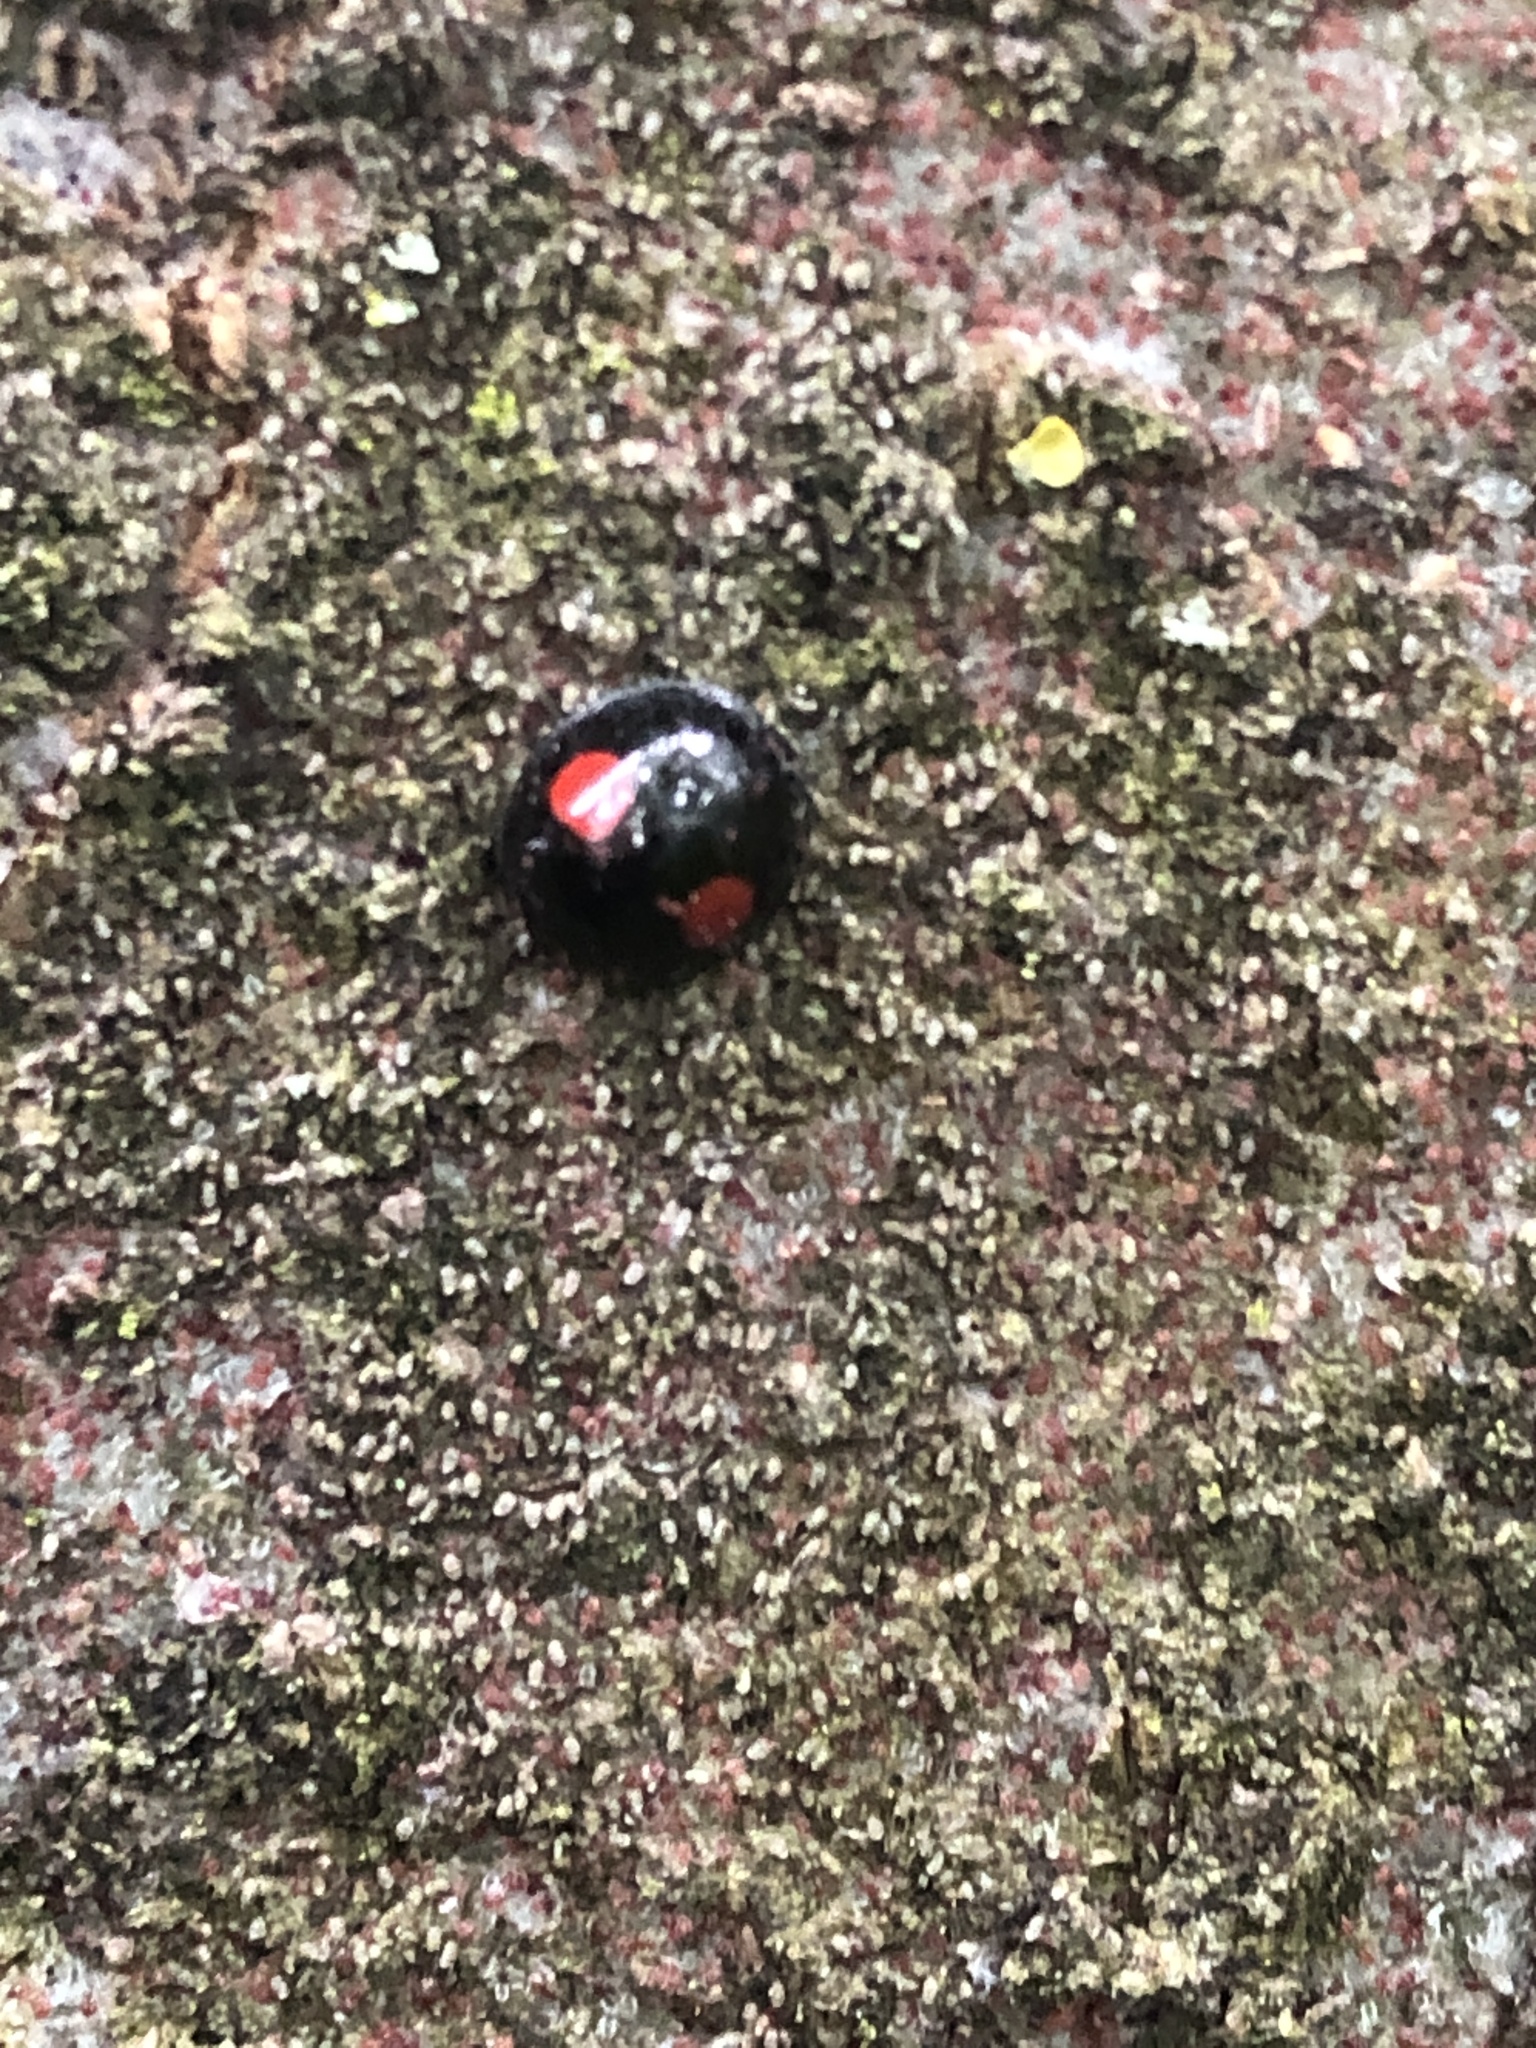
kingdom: Animalia
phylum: Arthropoda
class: Insecta
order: Coleoptera
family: Coccinellidae
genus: Chilocorus
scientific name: Chilocorus renipustulatus
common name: Kidney-spot ladybird
